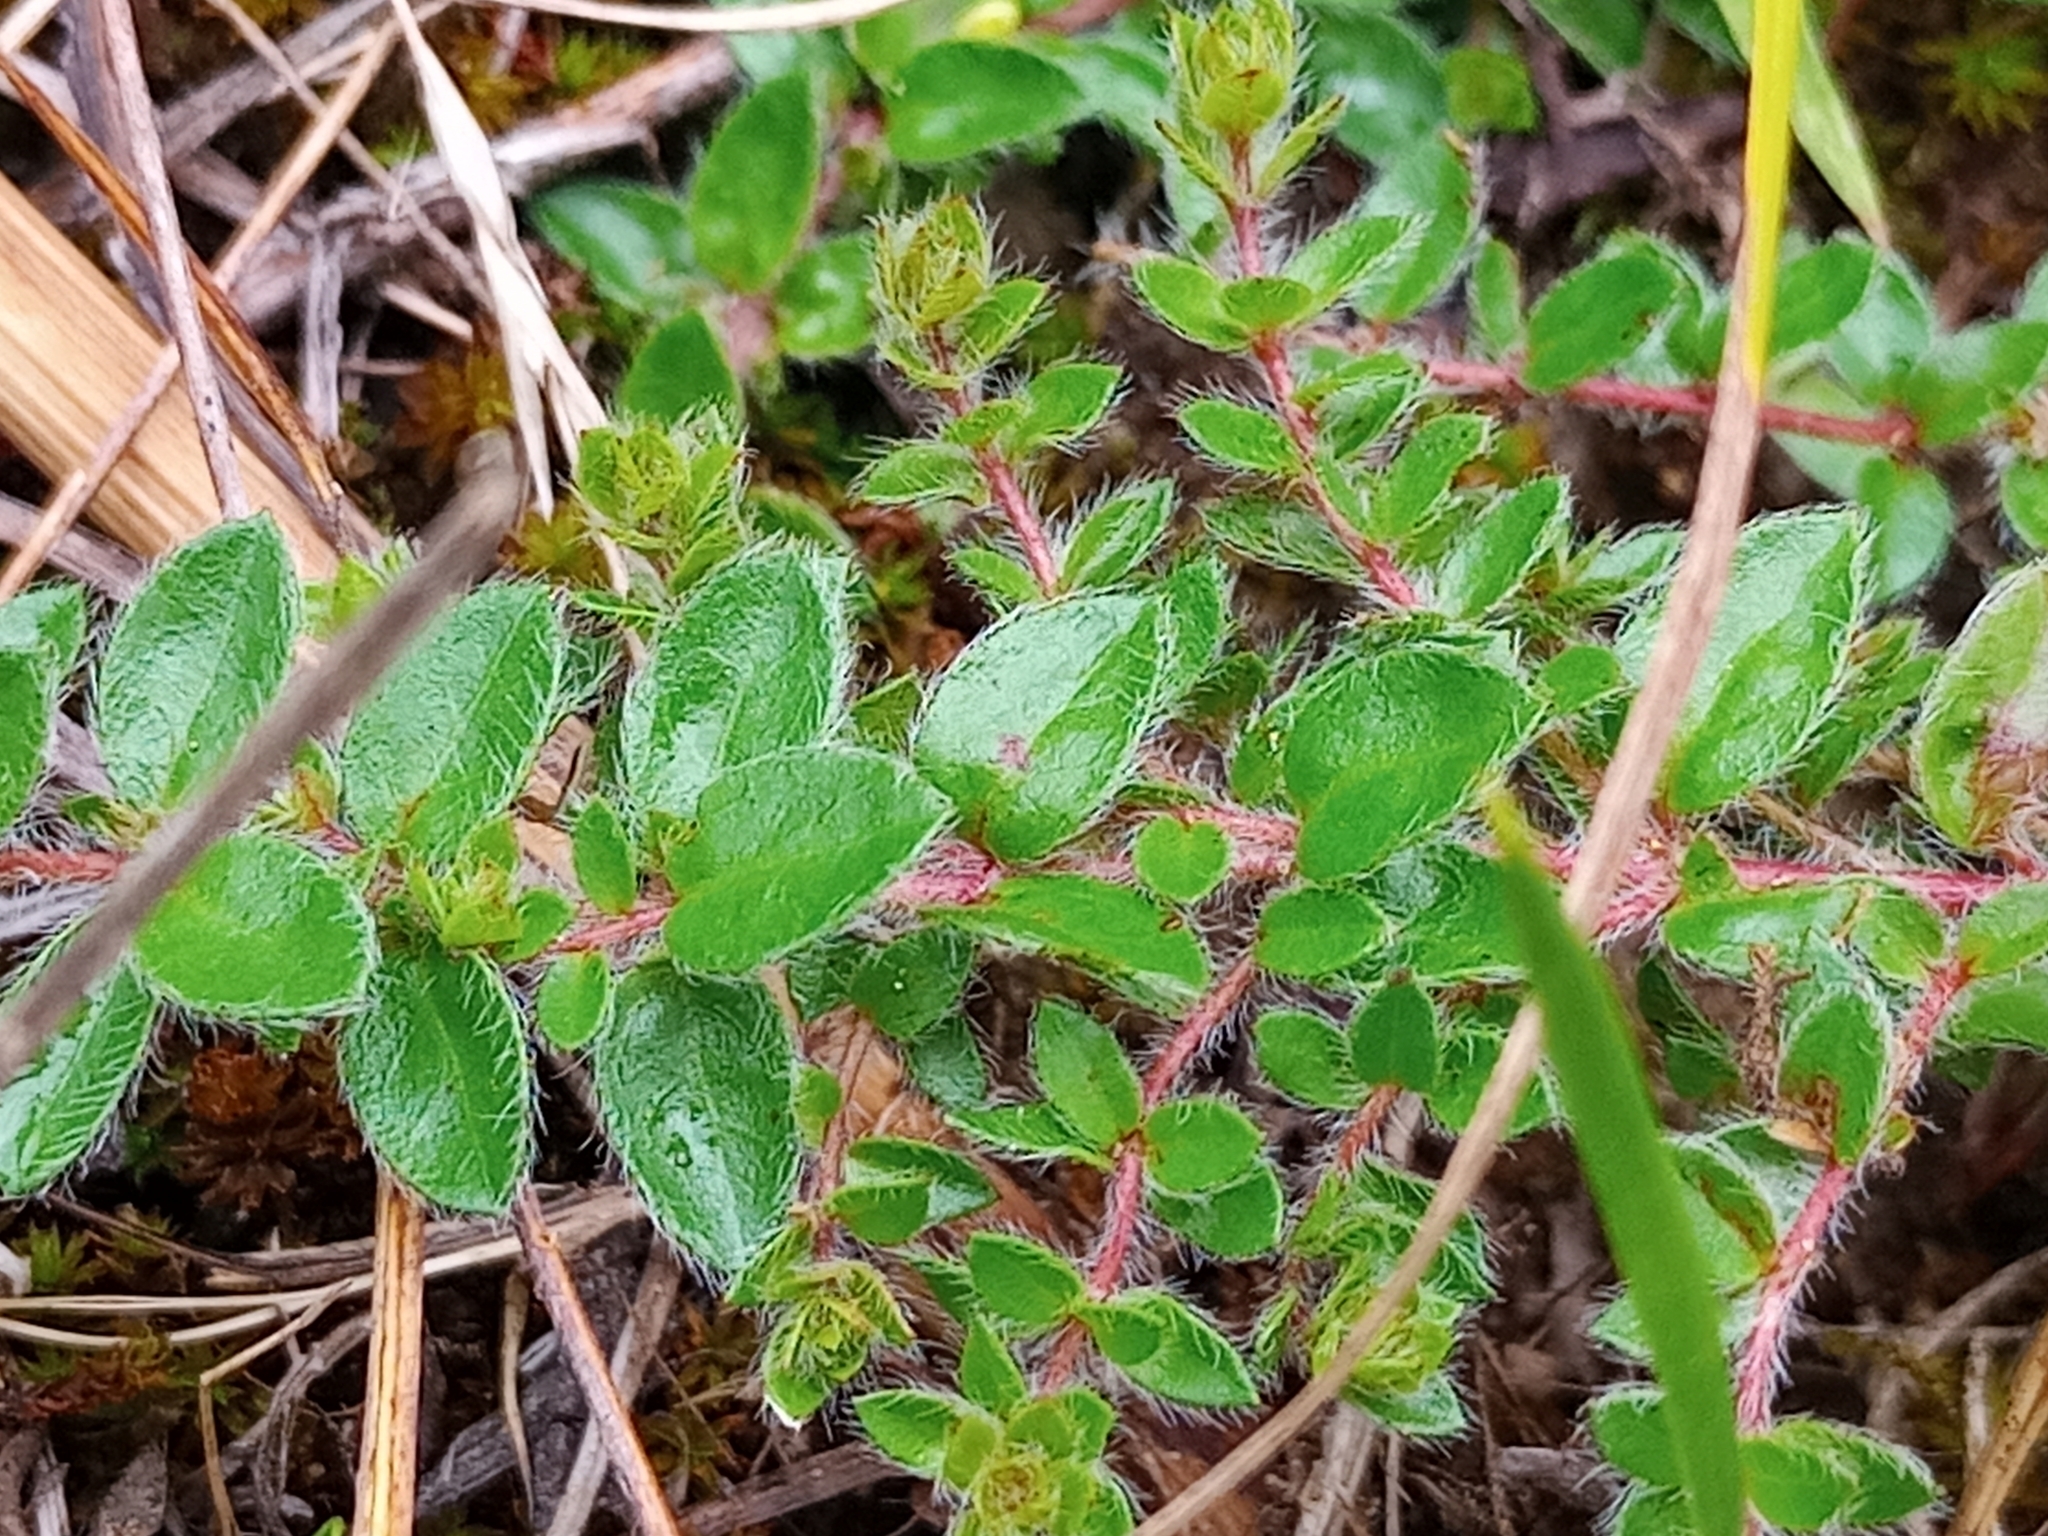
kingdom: Plantae
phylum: Tracheophyta
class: Magnoliopsida
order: Malvales
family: Cistaceae
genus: Lechea
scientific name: Lechea mucronata
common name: Hairy pinweed
